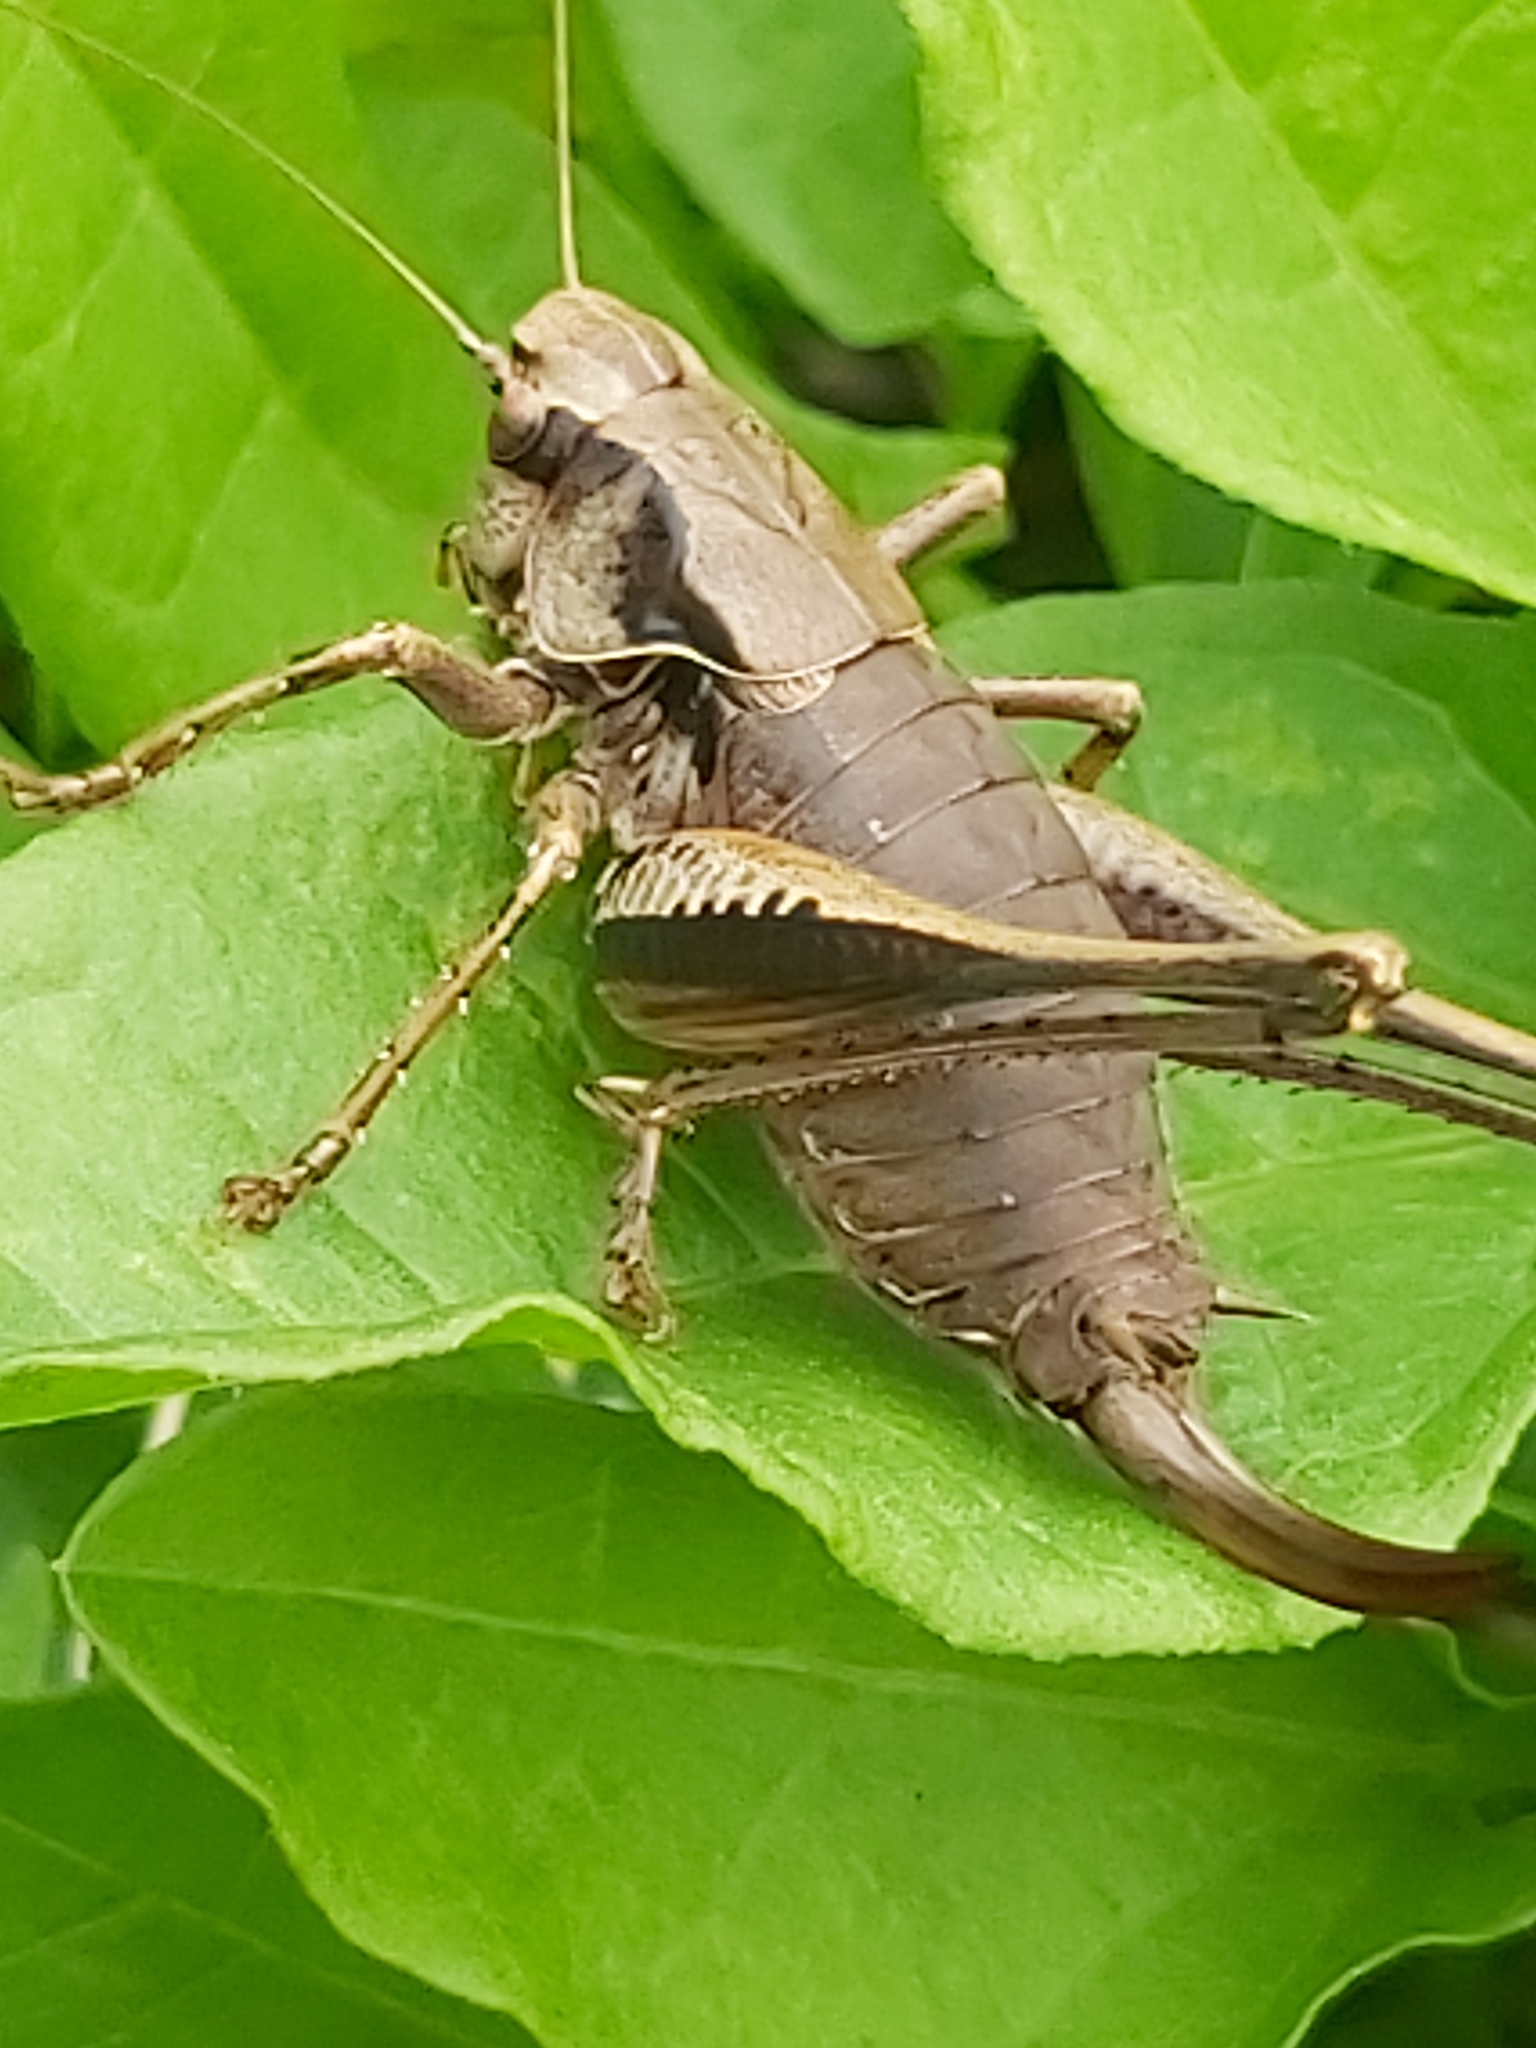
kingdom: Animalia
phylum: Arthropoda
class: Insecta
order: Orthoptera
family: Tettigoniidae
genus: Pholidoptera
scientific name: Pholidoptera griseoaptera
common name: Dark bush-cricket
